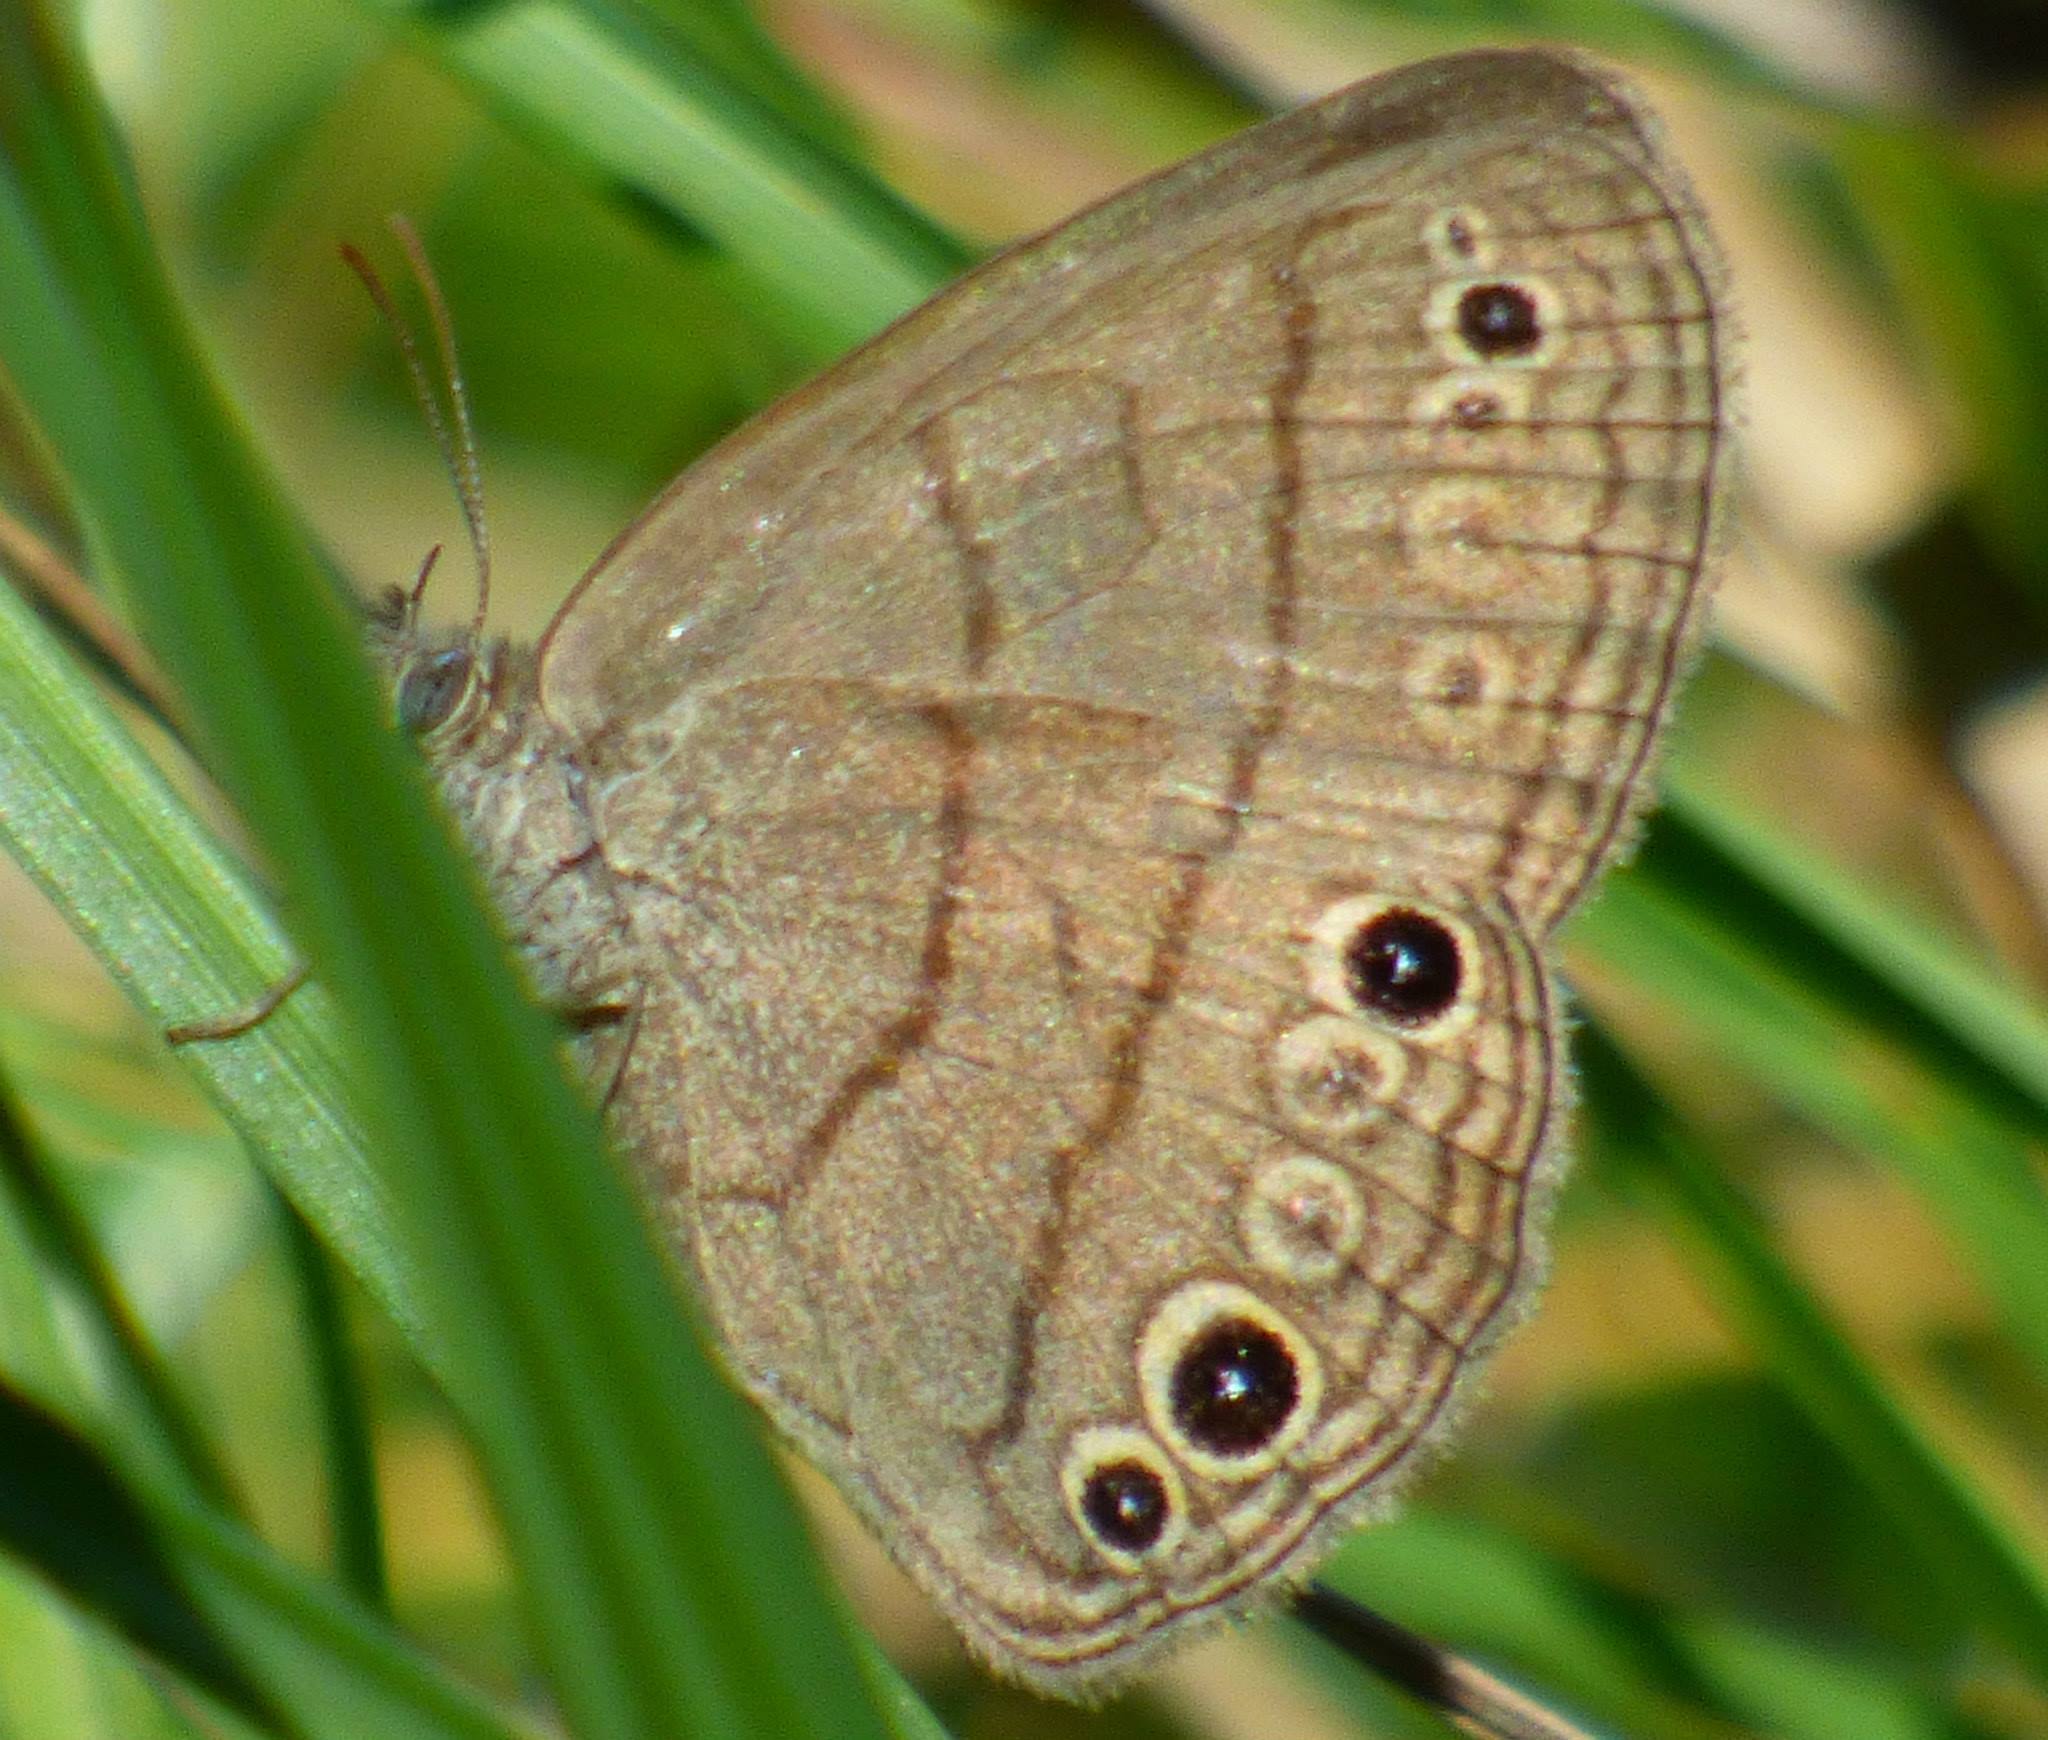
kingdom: Animalia
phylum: Arthropoda
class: Insecta
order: Lepidoptera
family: Nymphalidae
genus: Hermeuptychia
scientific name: Hermeuptychia intricata
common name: Intricate satyr
